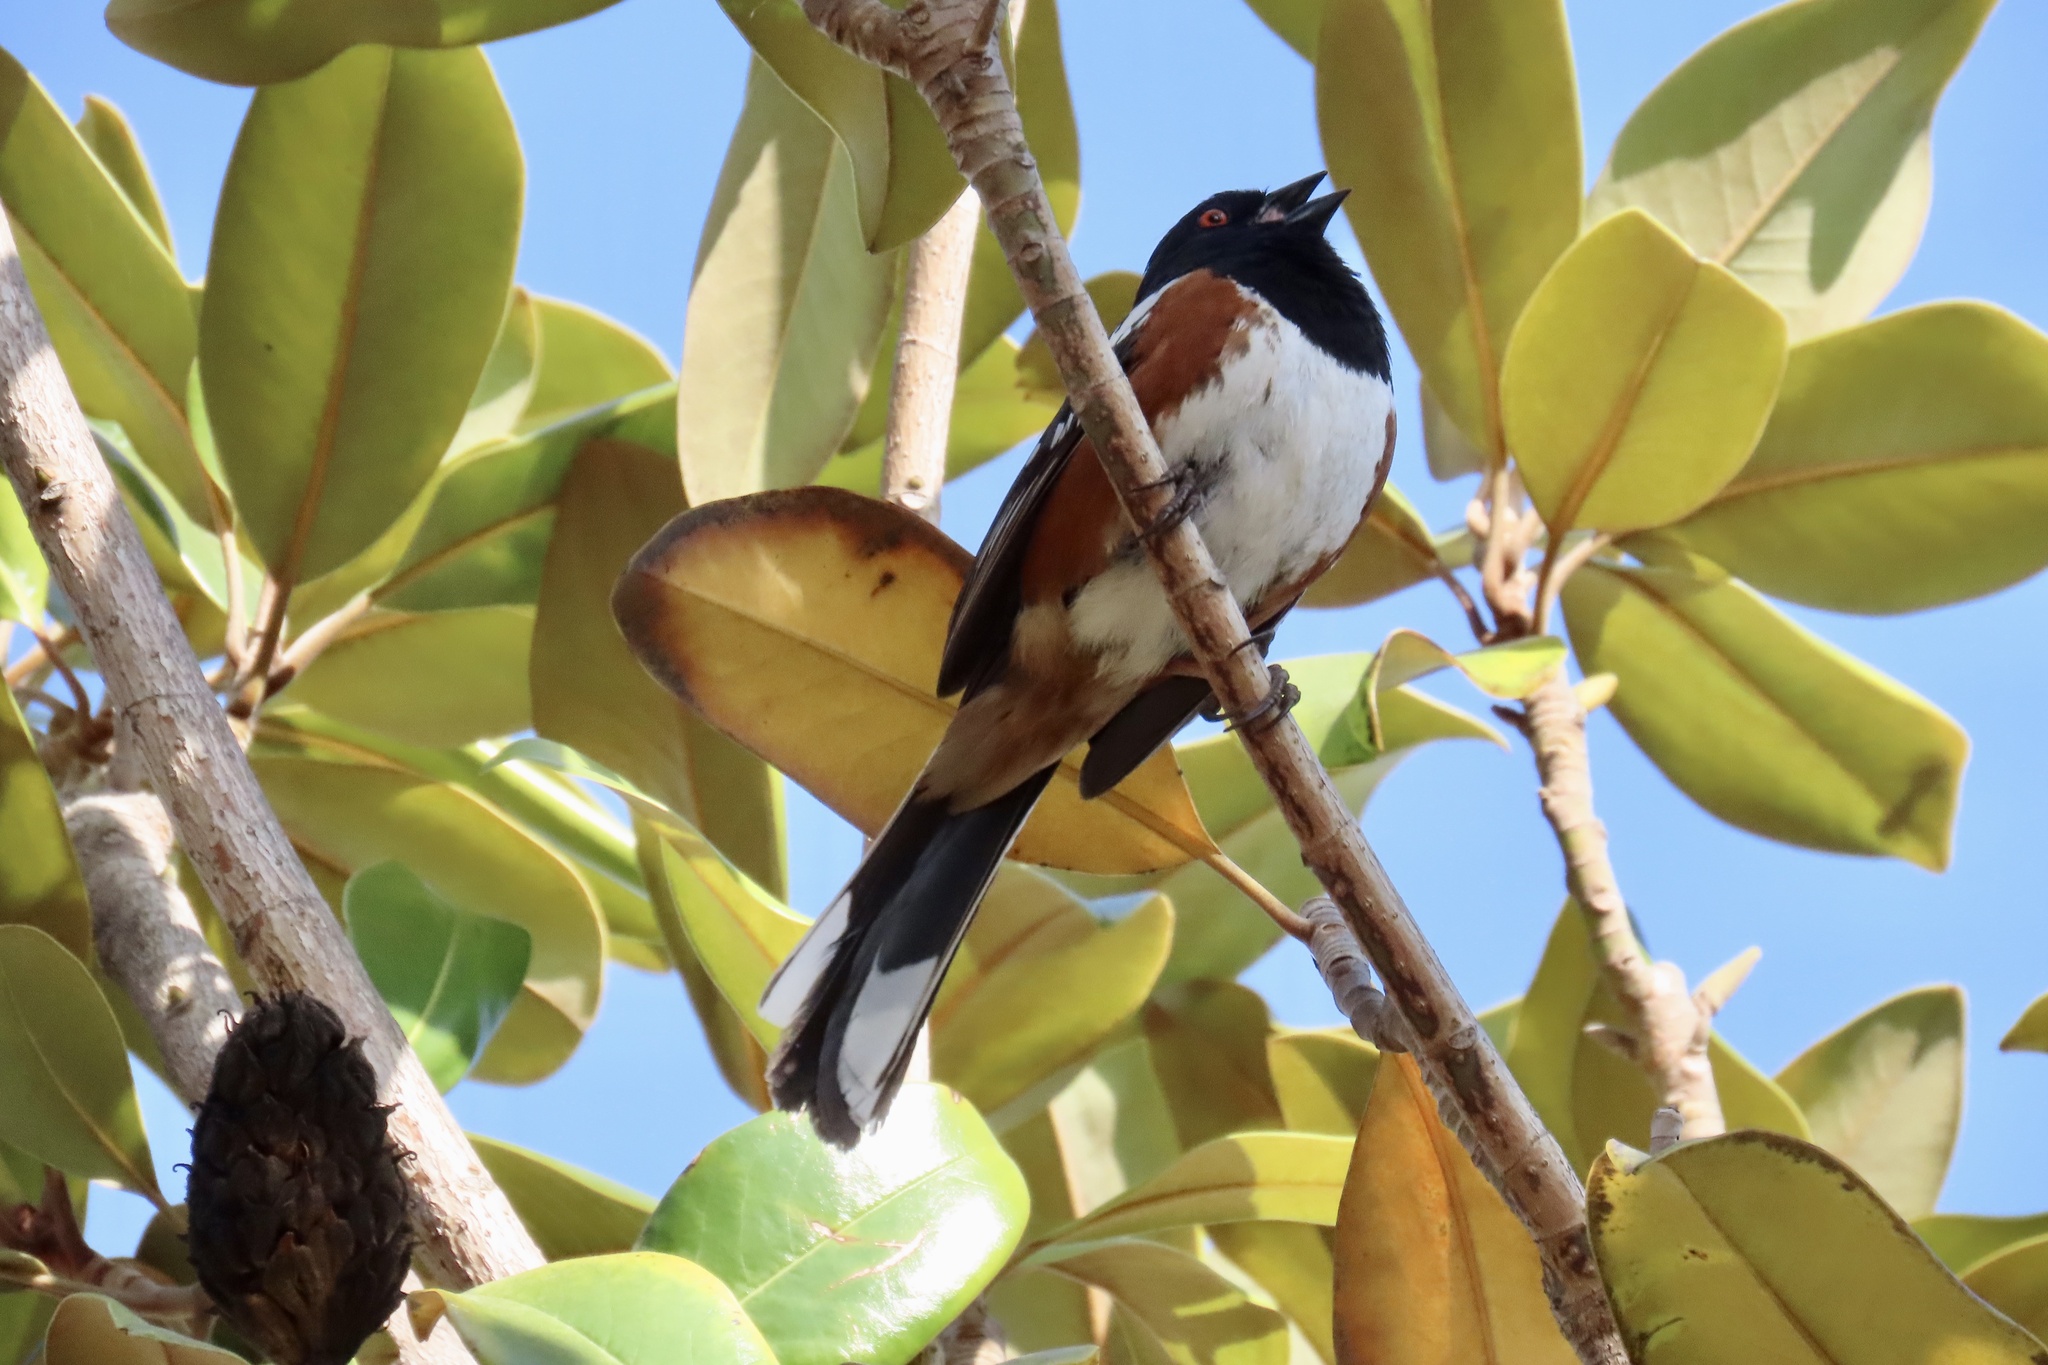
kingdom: Animalia
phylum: Chordata
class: Aves
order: Passeriformes
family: Passerellidae
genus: Pipilo
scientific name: Pipilo maculatus
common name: Spotted towhee
